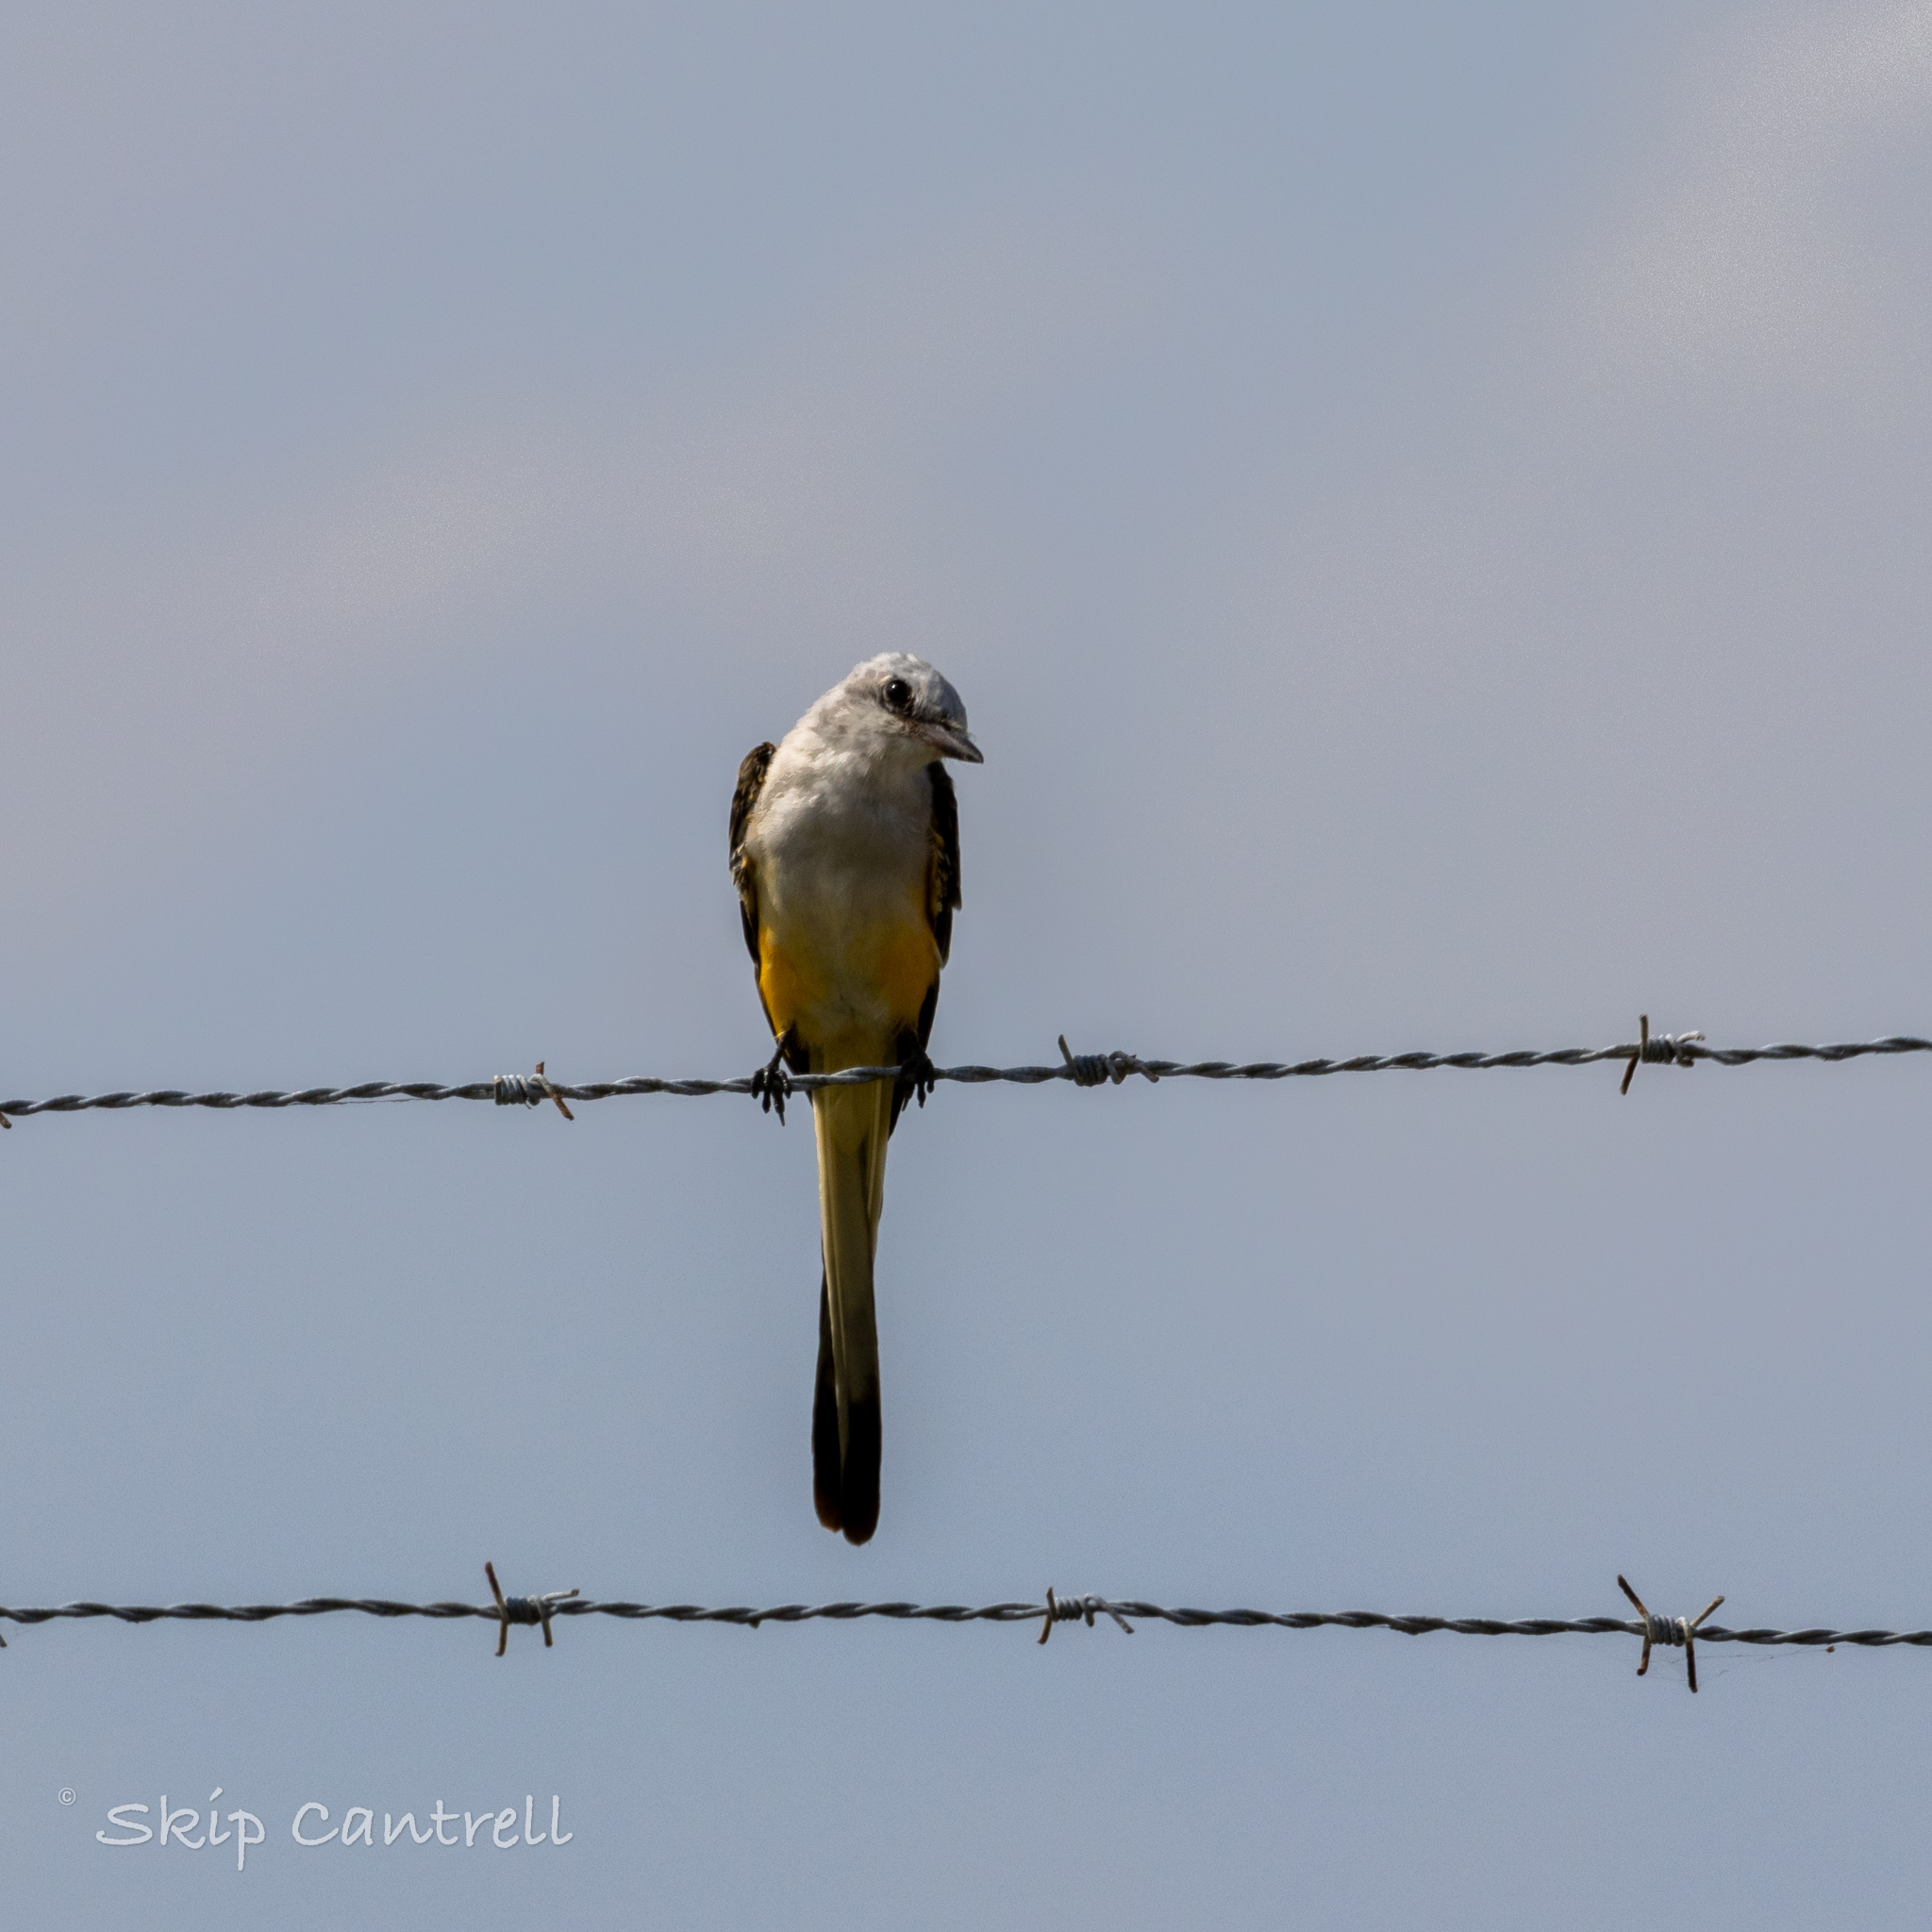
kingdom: Animalia
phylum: Chordata
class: Aves
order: Passeriformes
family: Tyrannidae
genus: Tyrannus
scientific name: Tyrannus forficatus
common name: Scissor-tailed flycatcher
